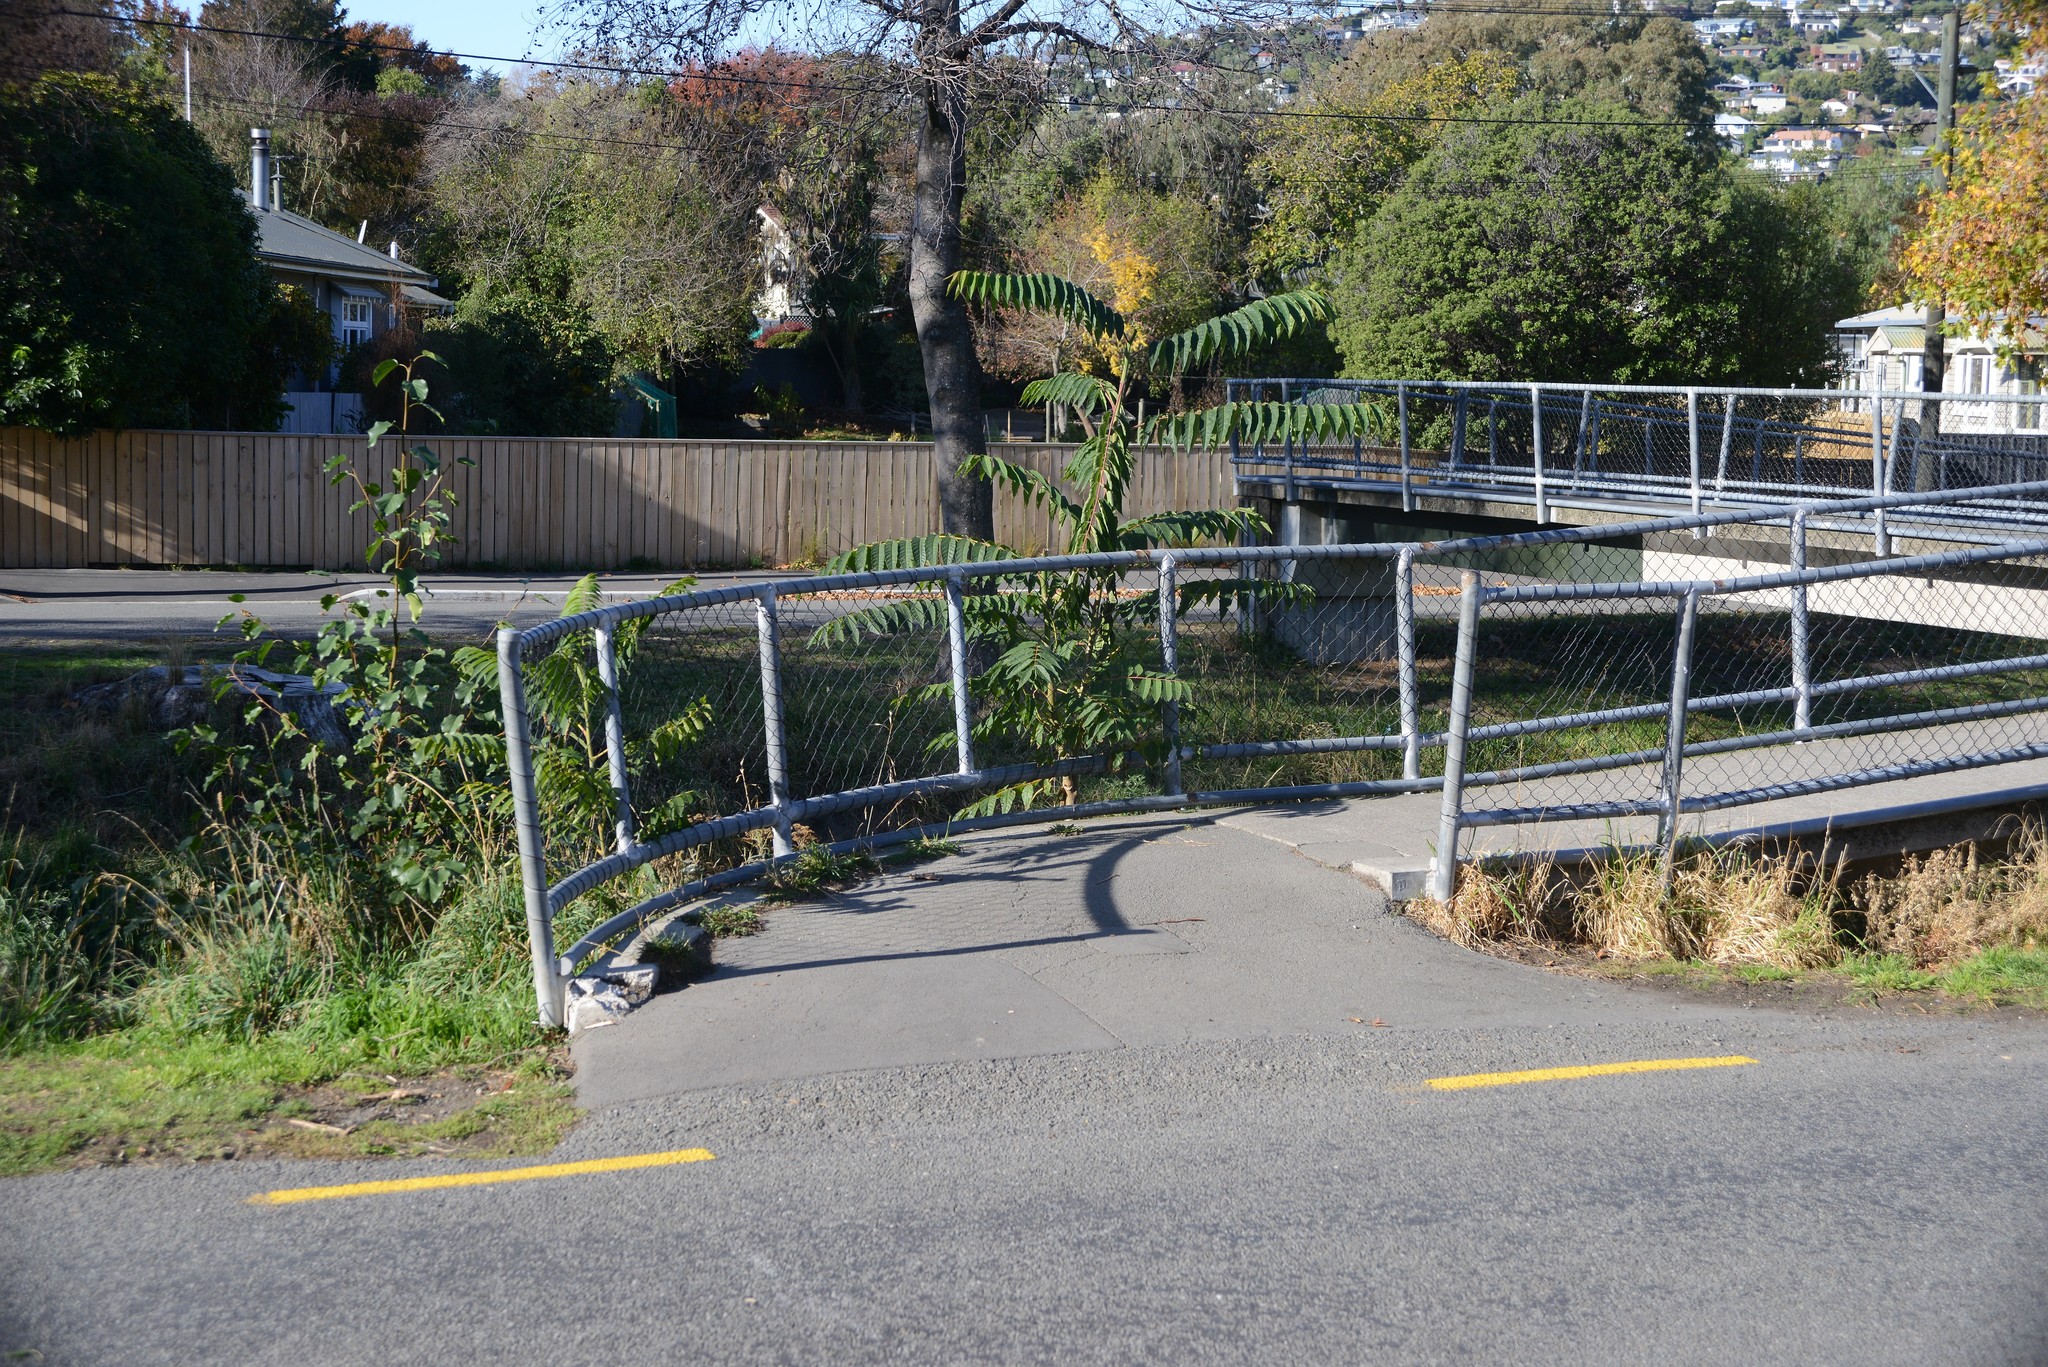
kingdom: Plantae
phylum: Tracheophyta
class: Magnoliopsida
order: Sapindales
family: Simaroubaceae
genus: Ailanthus
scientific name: Ailanthus altissima
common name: Tree-of-heaven
